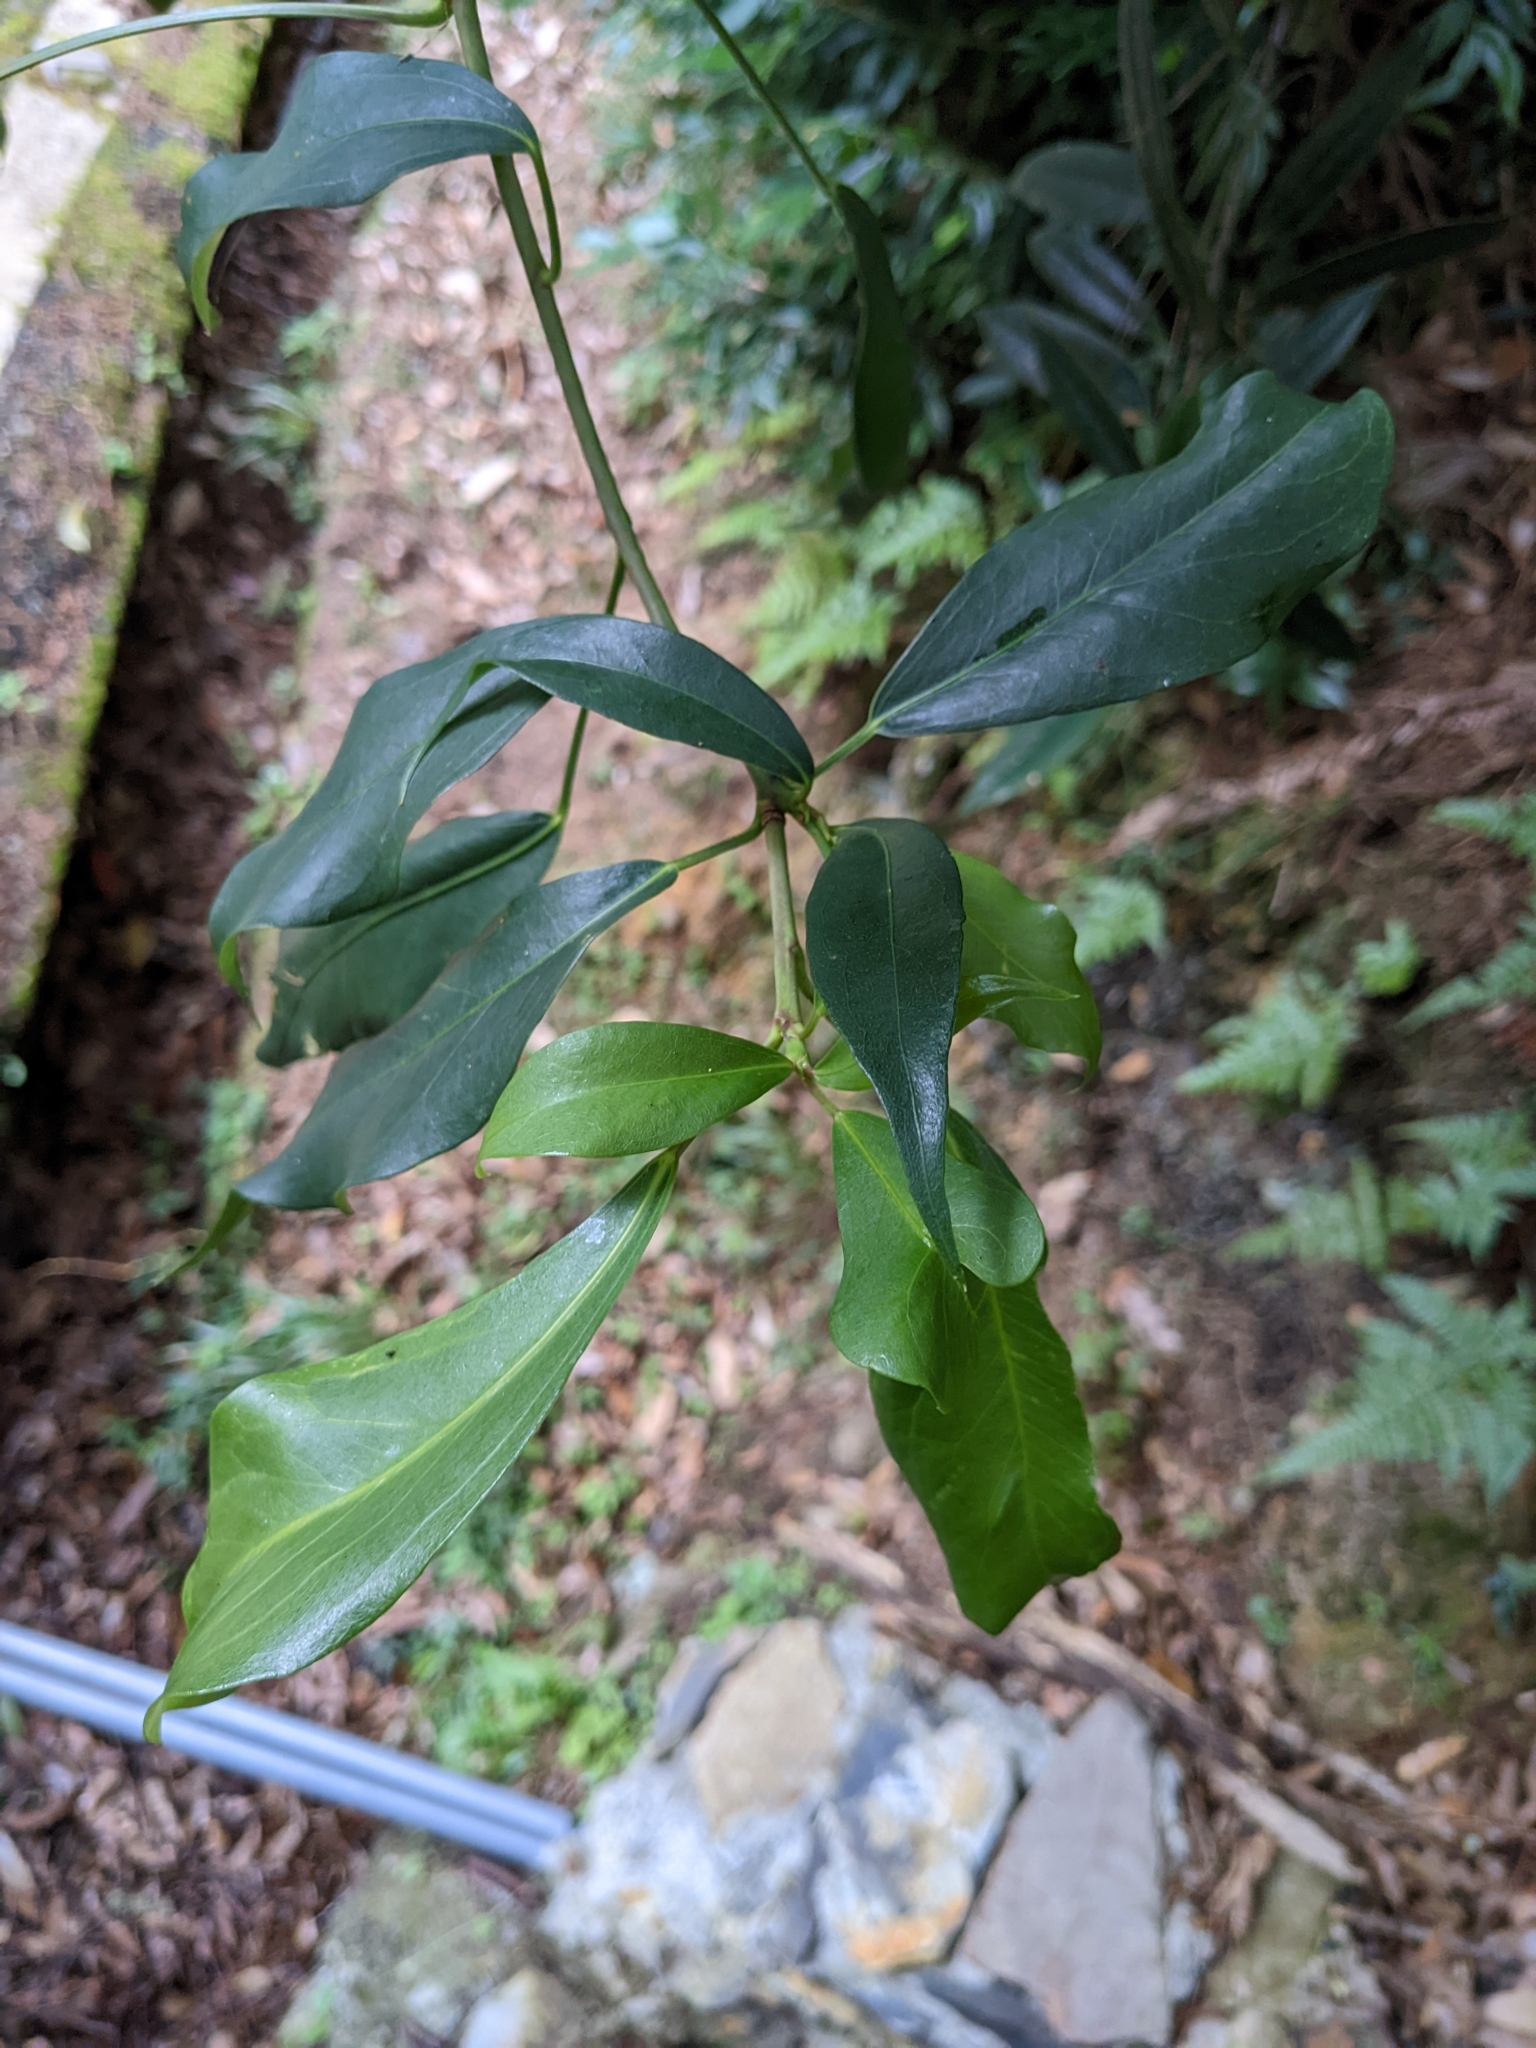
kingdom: Plantae
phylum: Tracheophyta
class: Magnoliopsida
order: Apiales
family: Araliaceae
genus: Dendropanax
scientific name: Dendropanax dentiger
